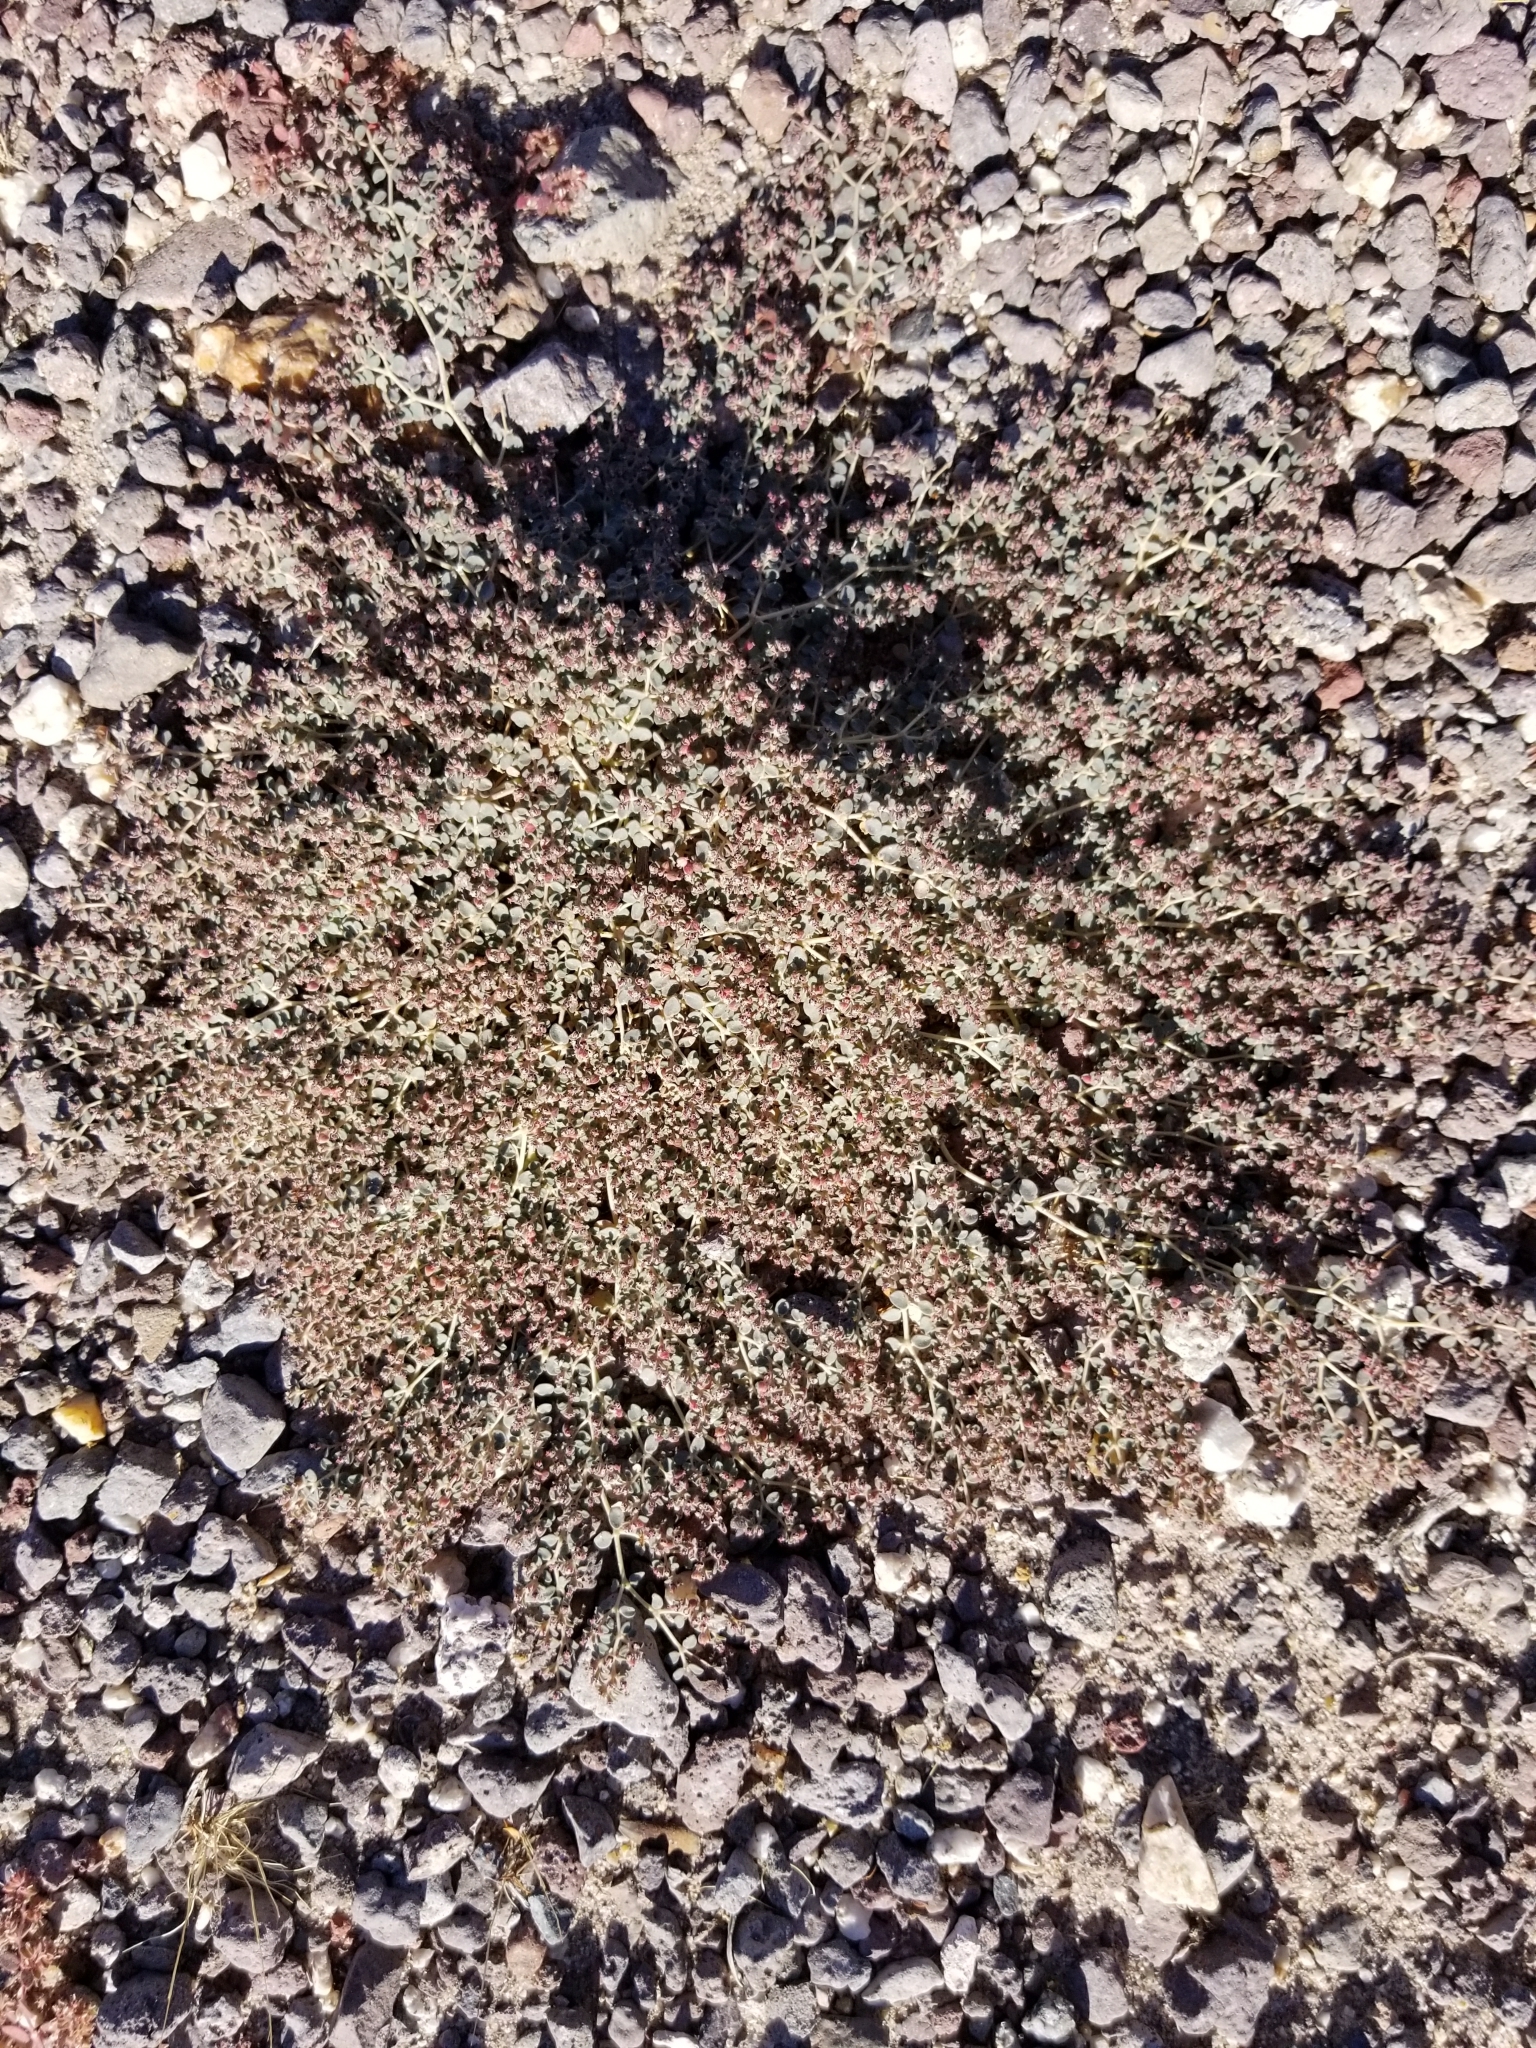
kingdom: Plantae
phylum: Tracheophyta
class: Magnoliopsida
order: Malpighiales
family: Euphorbiaceae
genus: Euphorbia
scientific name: Euphorbia polycarpa
